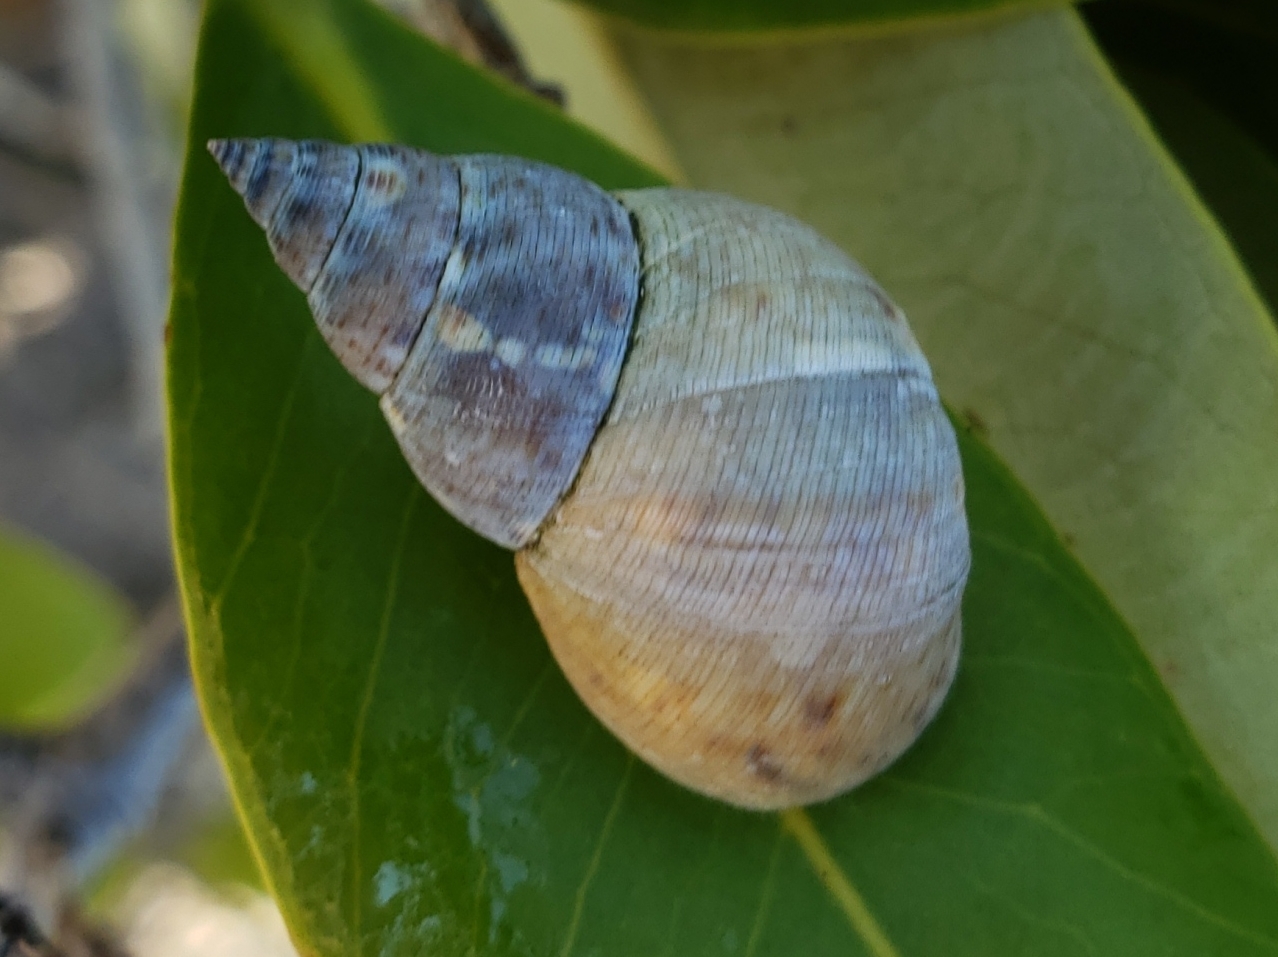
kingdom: Animalia
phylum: Mollusca
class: Gastropoda
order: Littorinimorpha
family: Littorinidae
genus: Littoraria
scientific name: Littoraria angulifera
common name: Mangrove periwinkle
